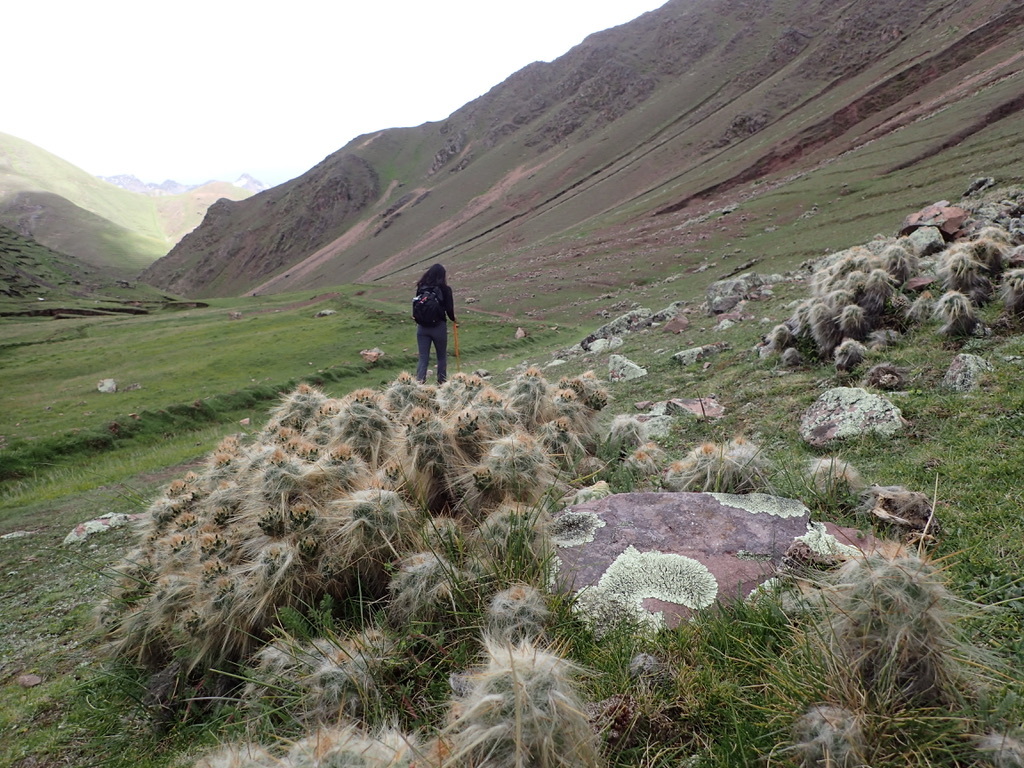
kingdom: Plantae
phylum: Tracheophyta
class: Magnoliopsida
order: Caryophyllales
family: Cactaceae
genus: Austrocylindropuntia
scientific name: Austrocylindropuntia floccosa
